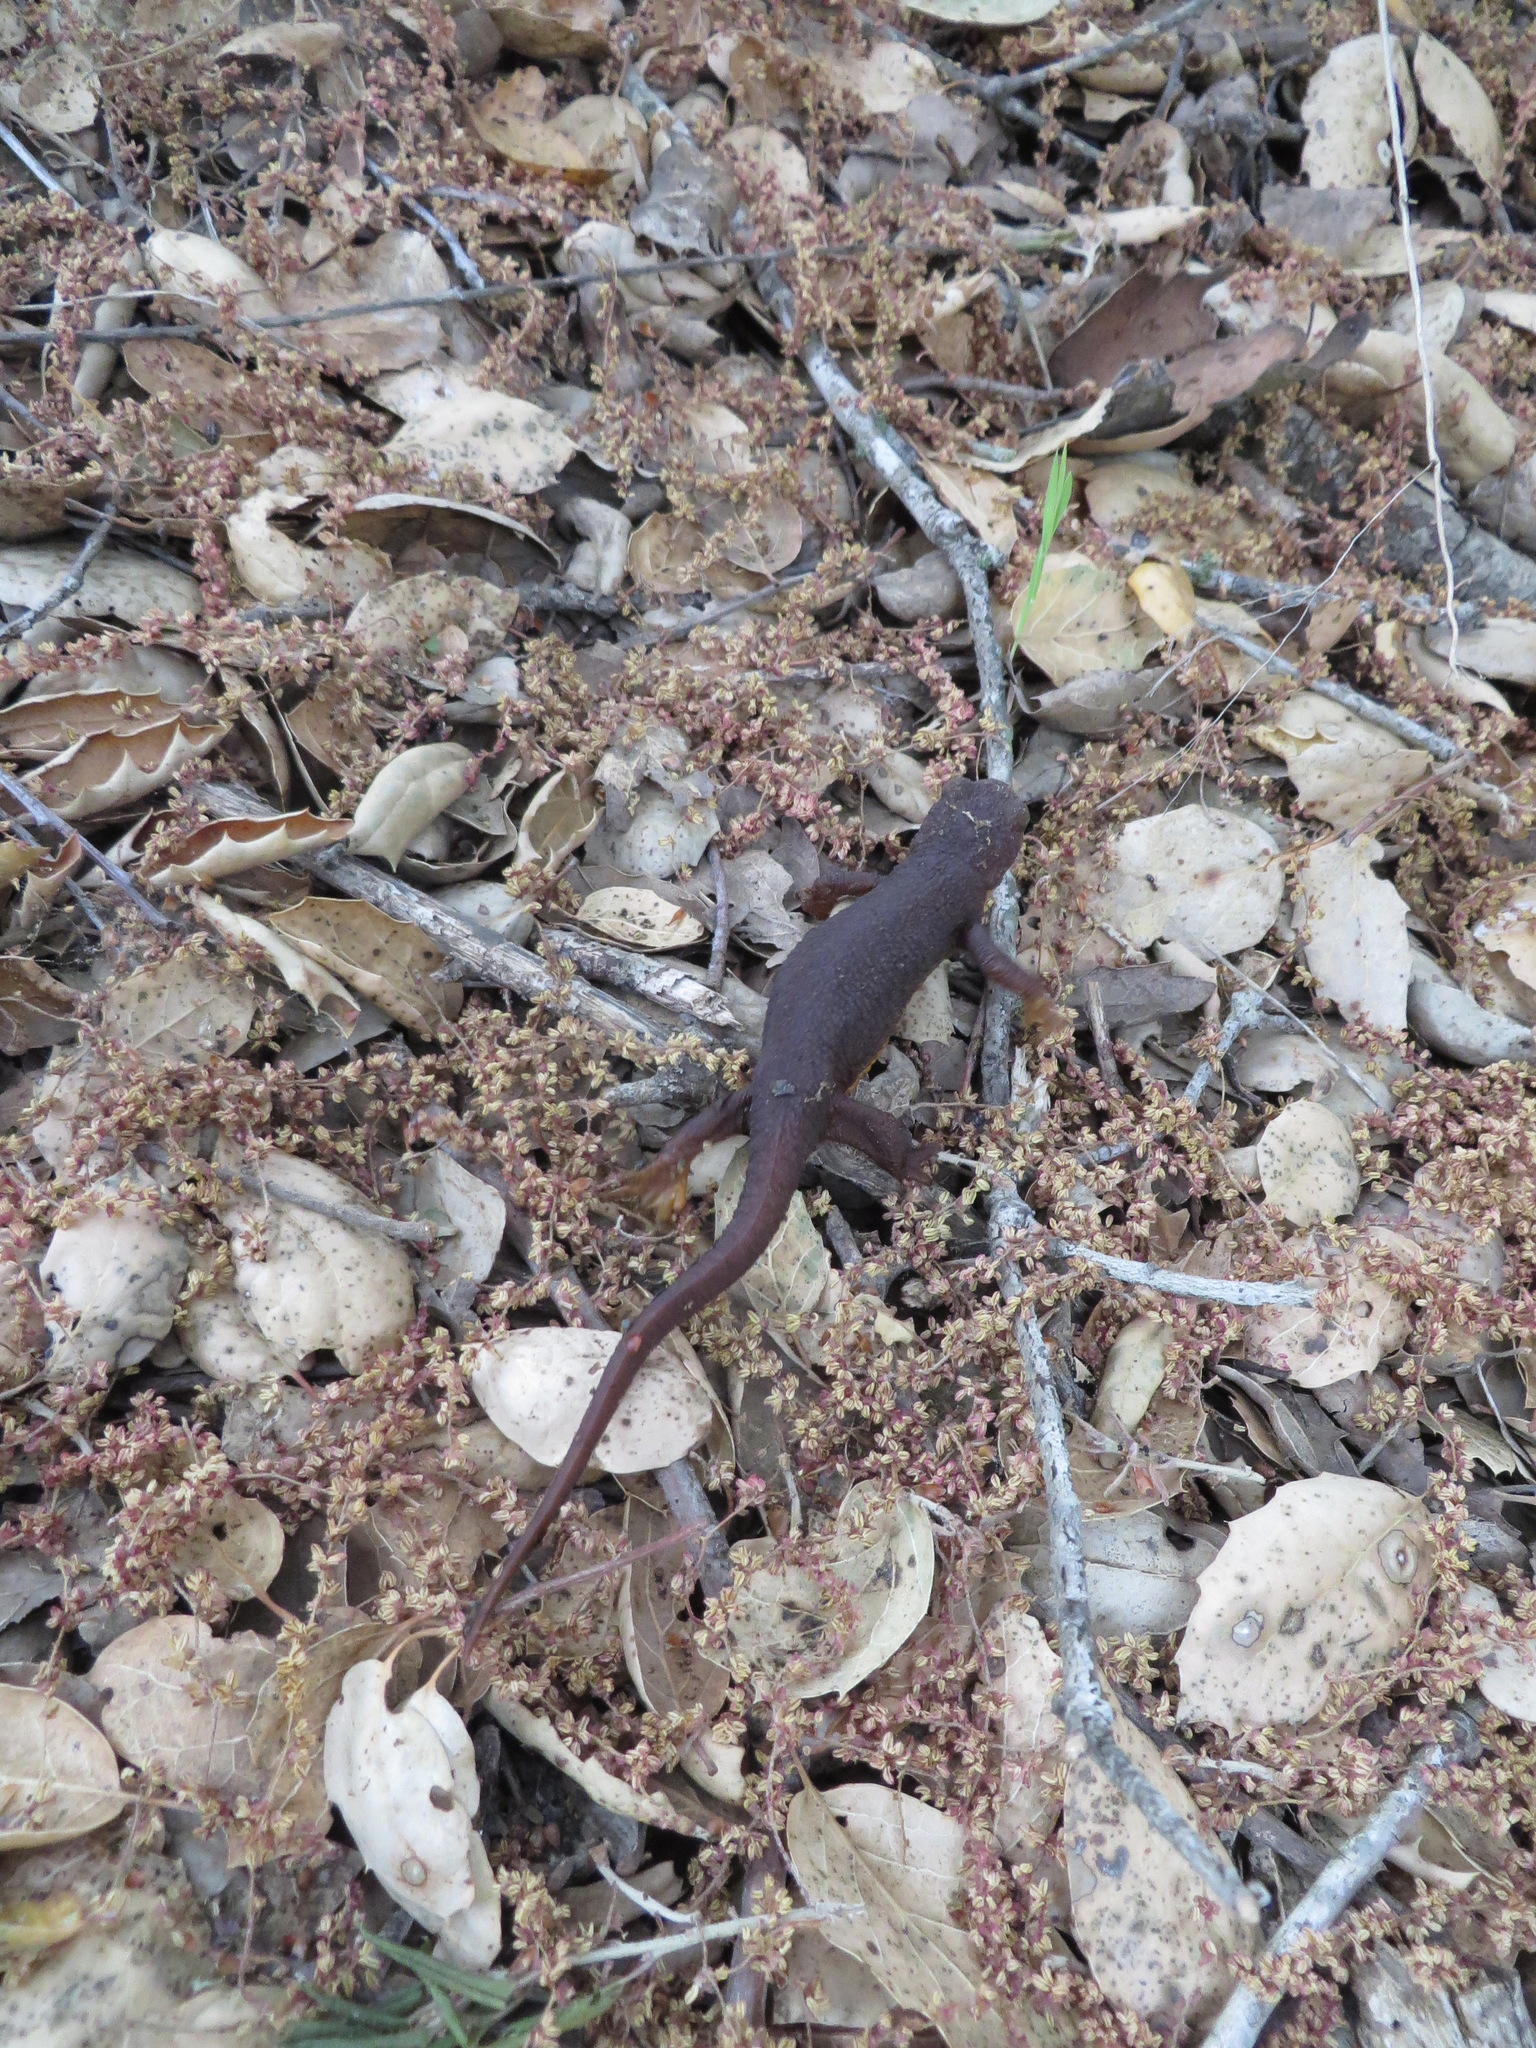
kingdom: Animalia
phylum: Chordata
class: Amphibia
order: Caudata
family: Salamandridae
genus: Taricha
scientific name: Taricha torosa
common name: California newt
